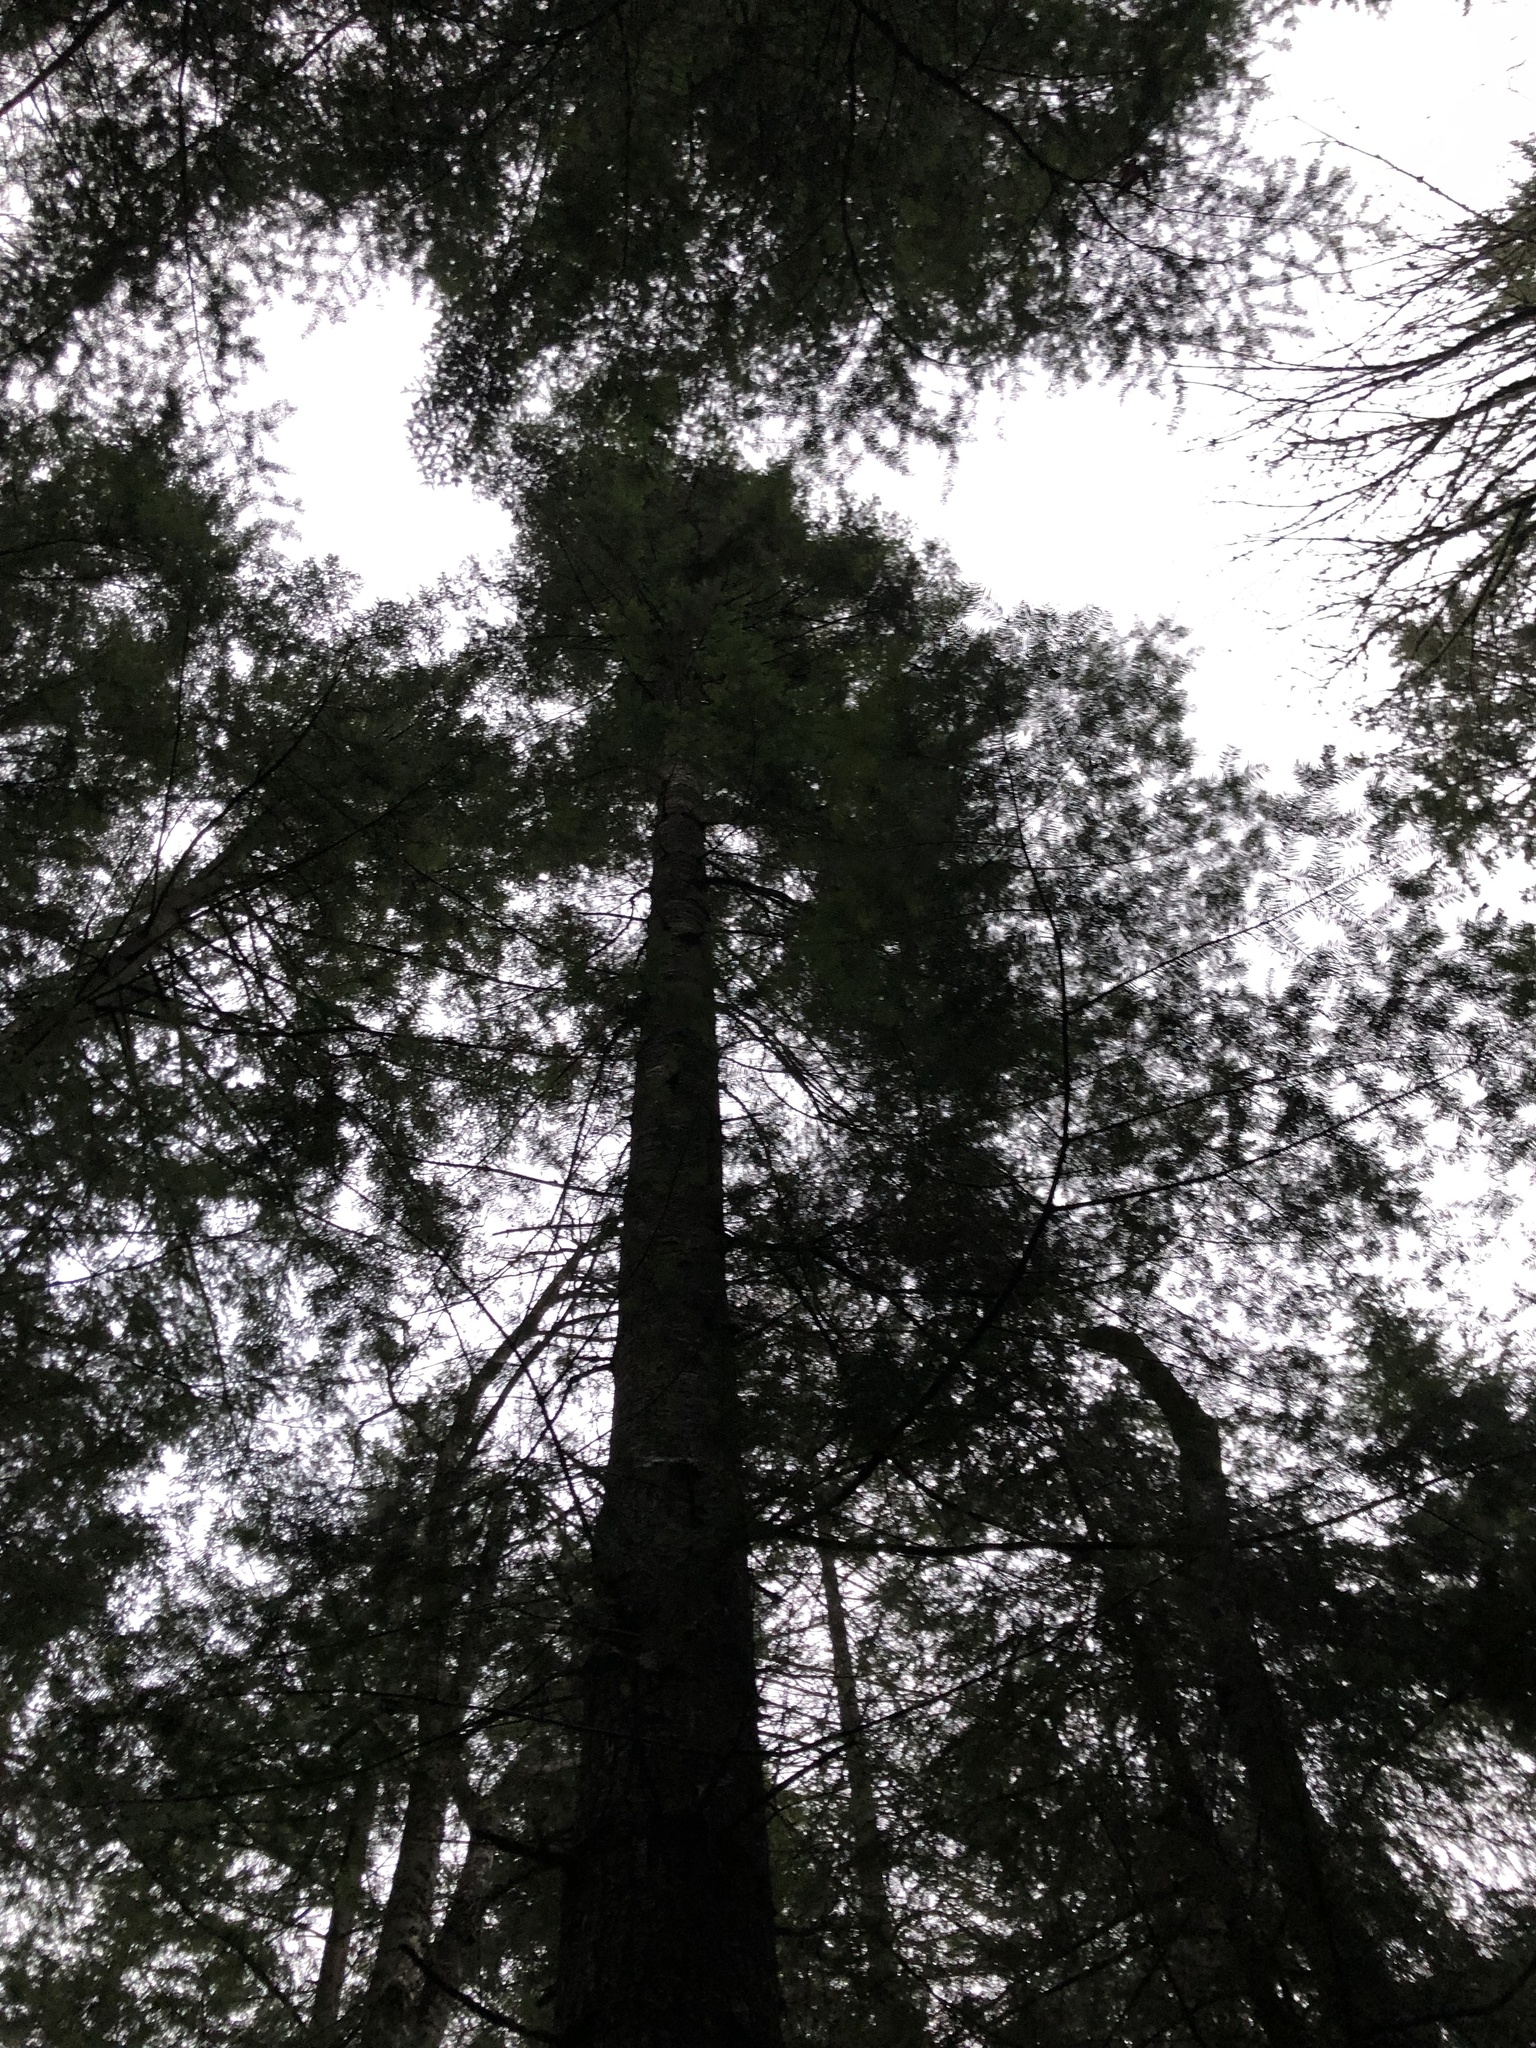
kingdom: Plantae
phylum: Tracheophyta
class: Pinopsida
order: Pinales
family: Pinaceae
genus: Abies
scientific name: Abies grandis
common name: Giant fir
